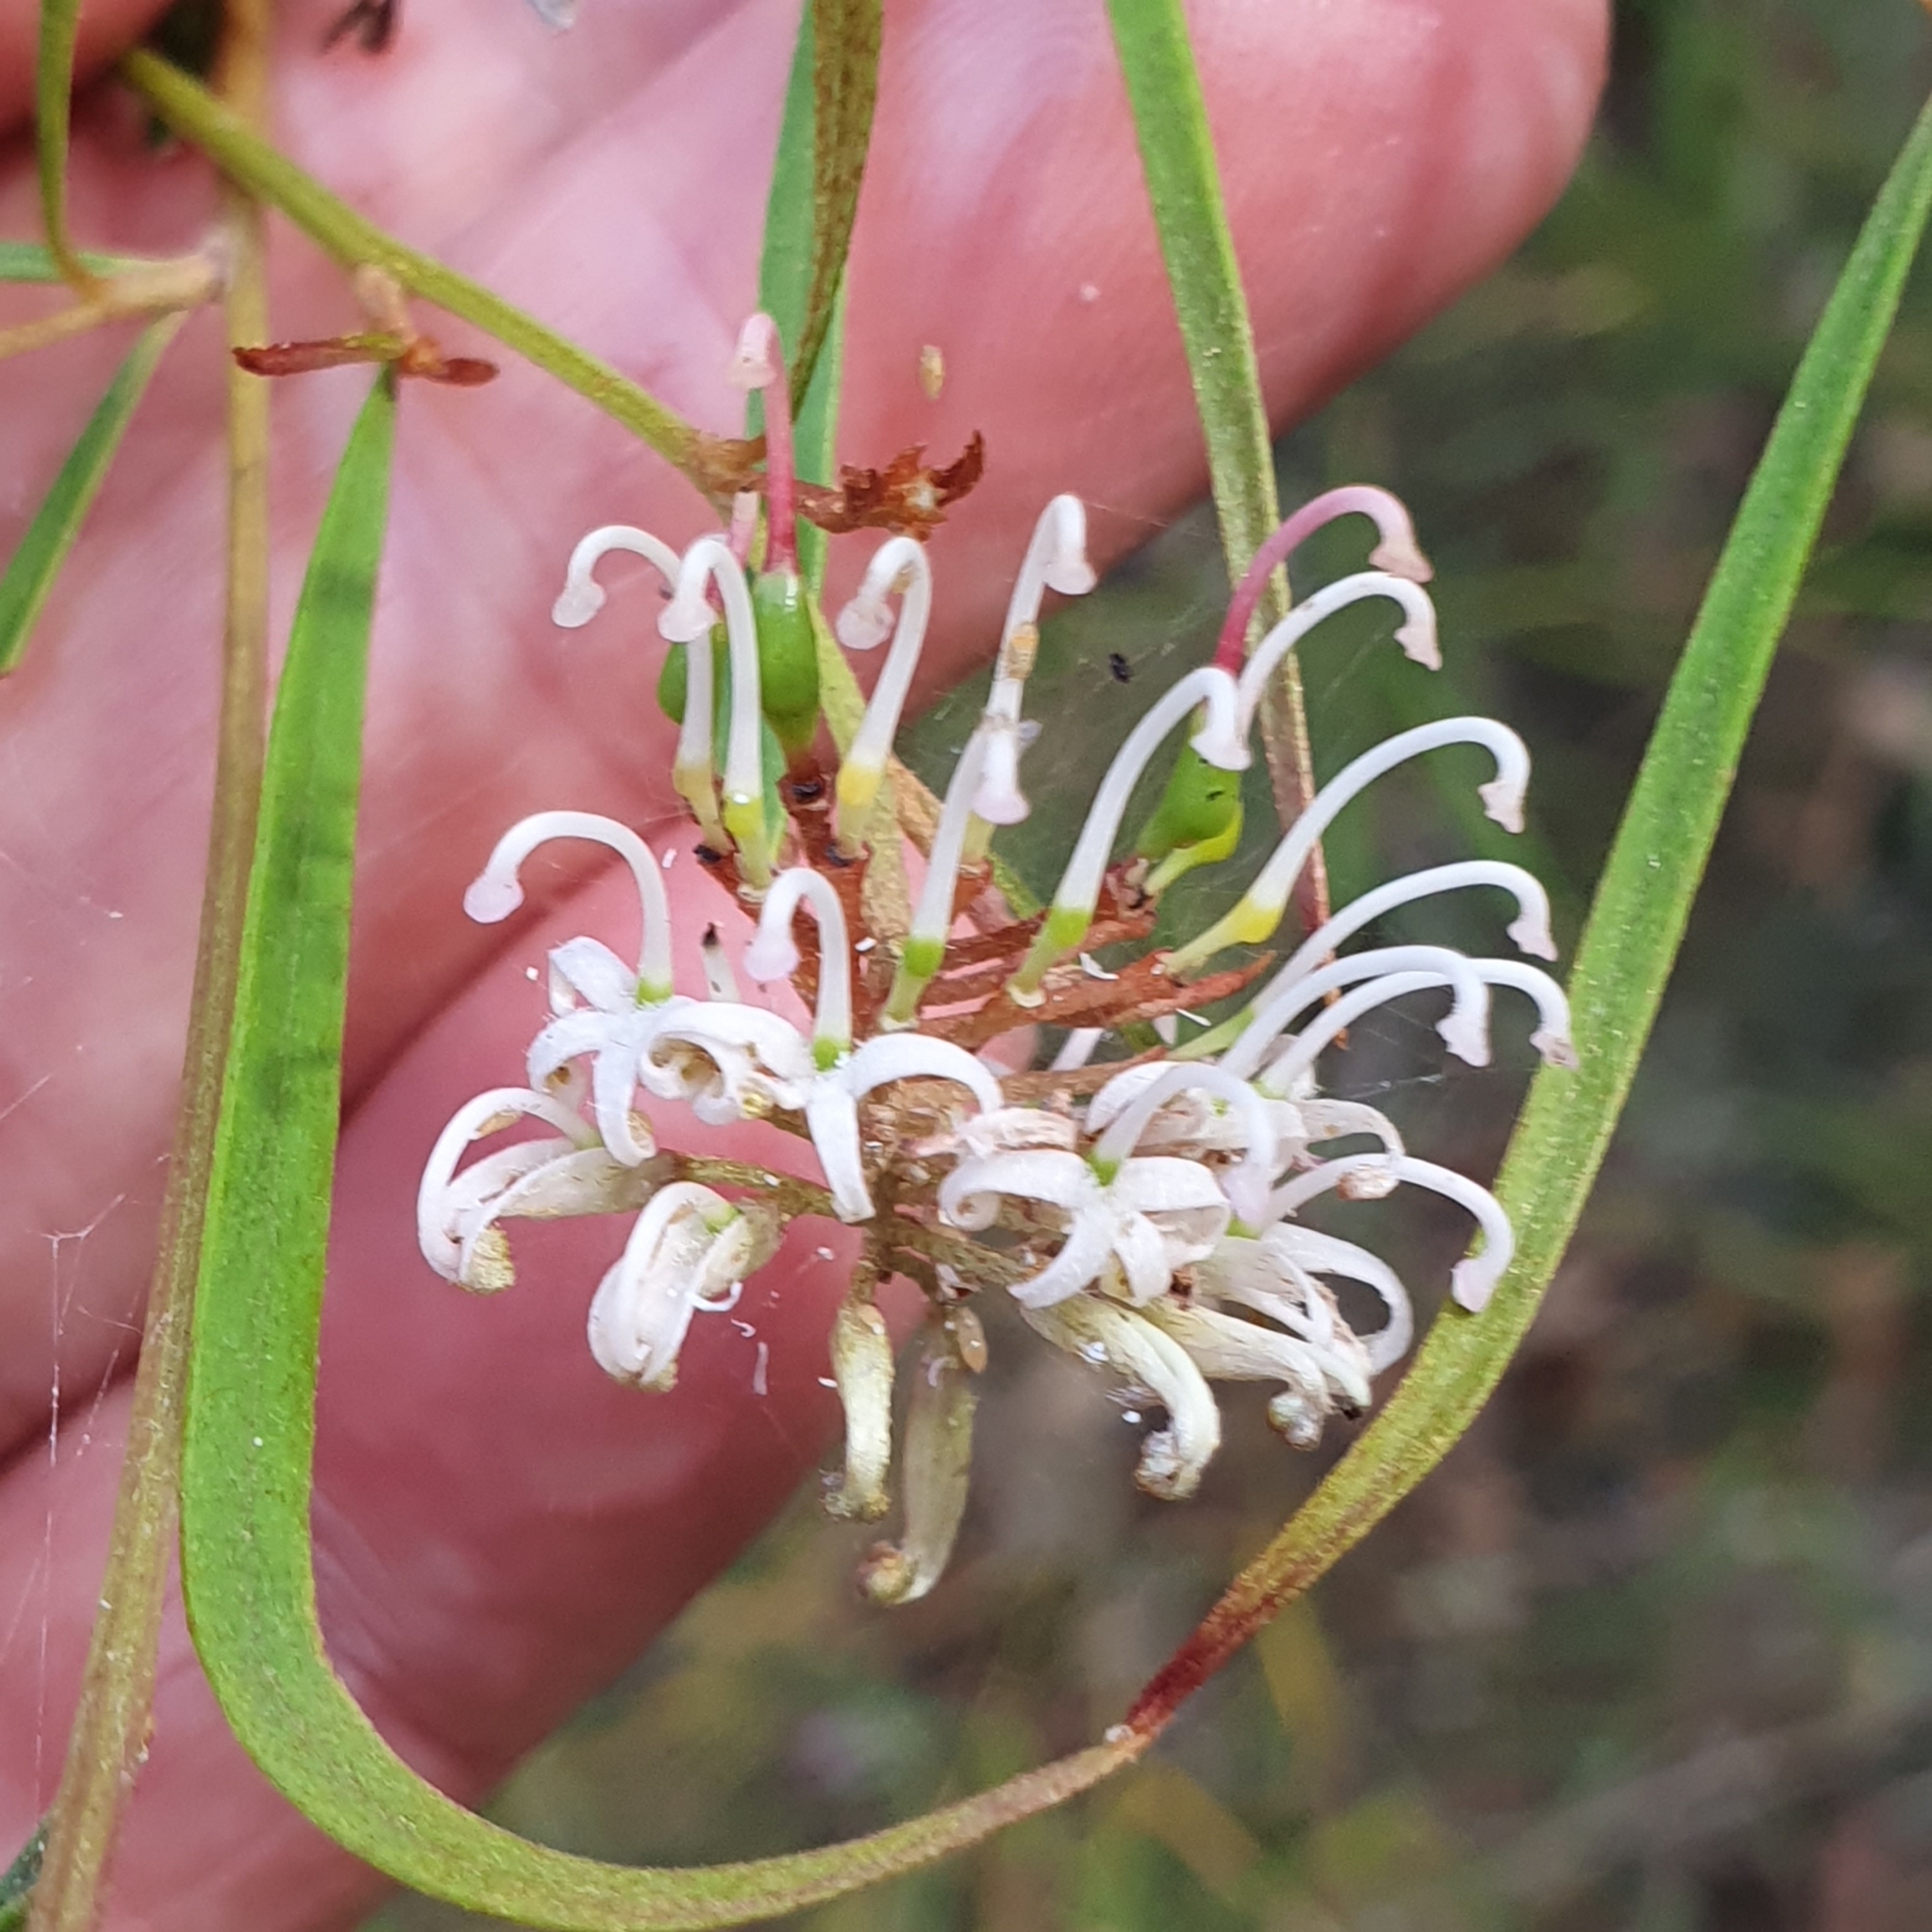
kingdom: Plantae
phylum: Tracheophyta
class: Magnoliopsida
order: Proteales
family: Proteaceae
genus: Grevillea
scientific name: Grevillea linearifolia
